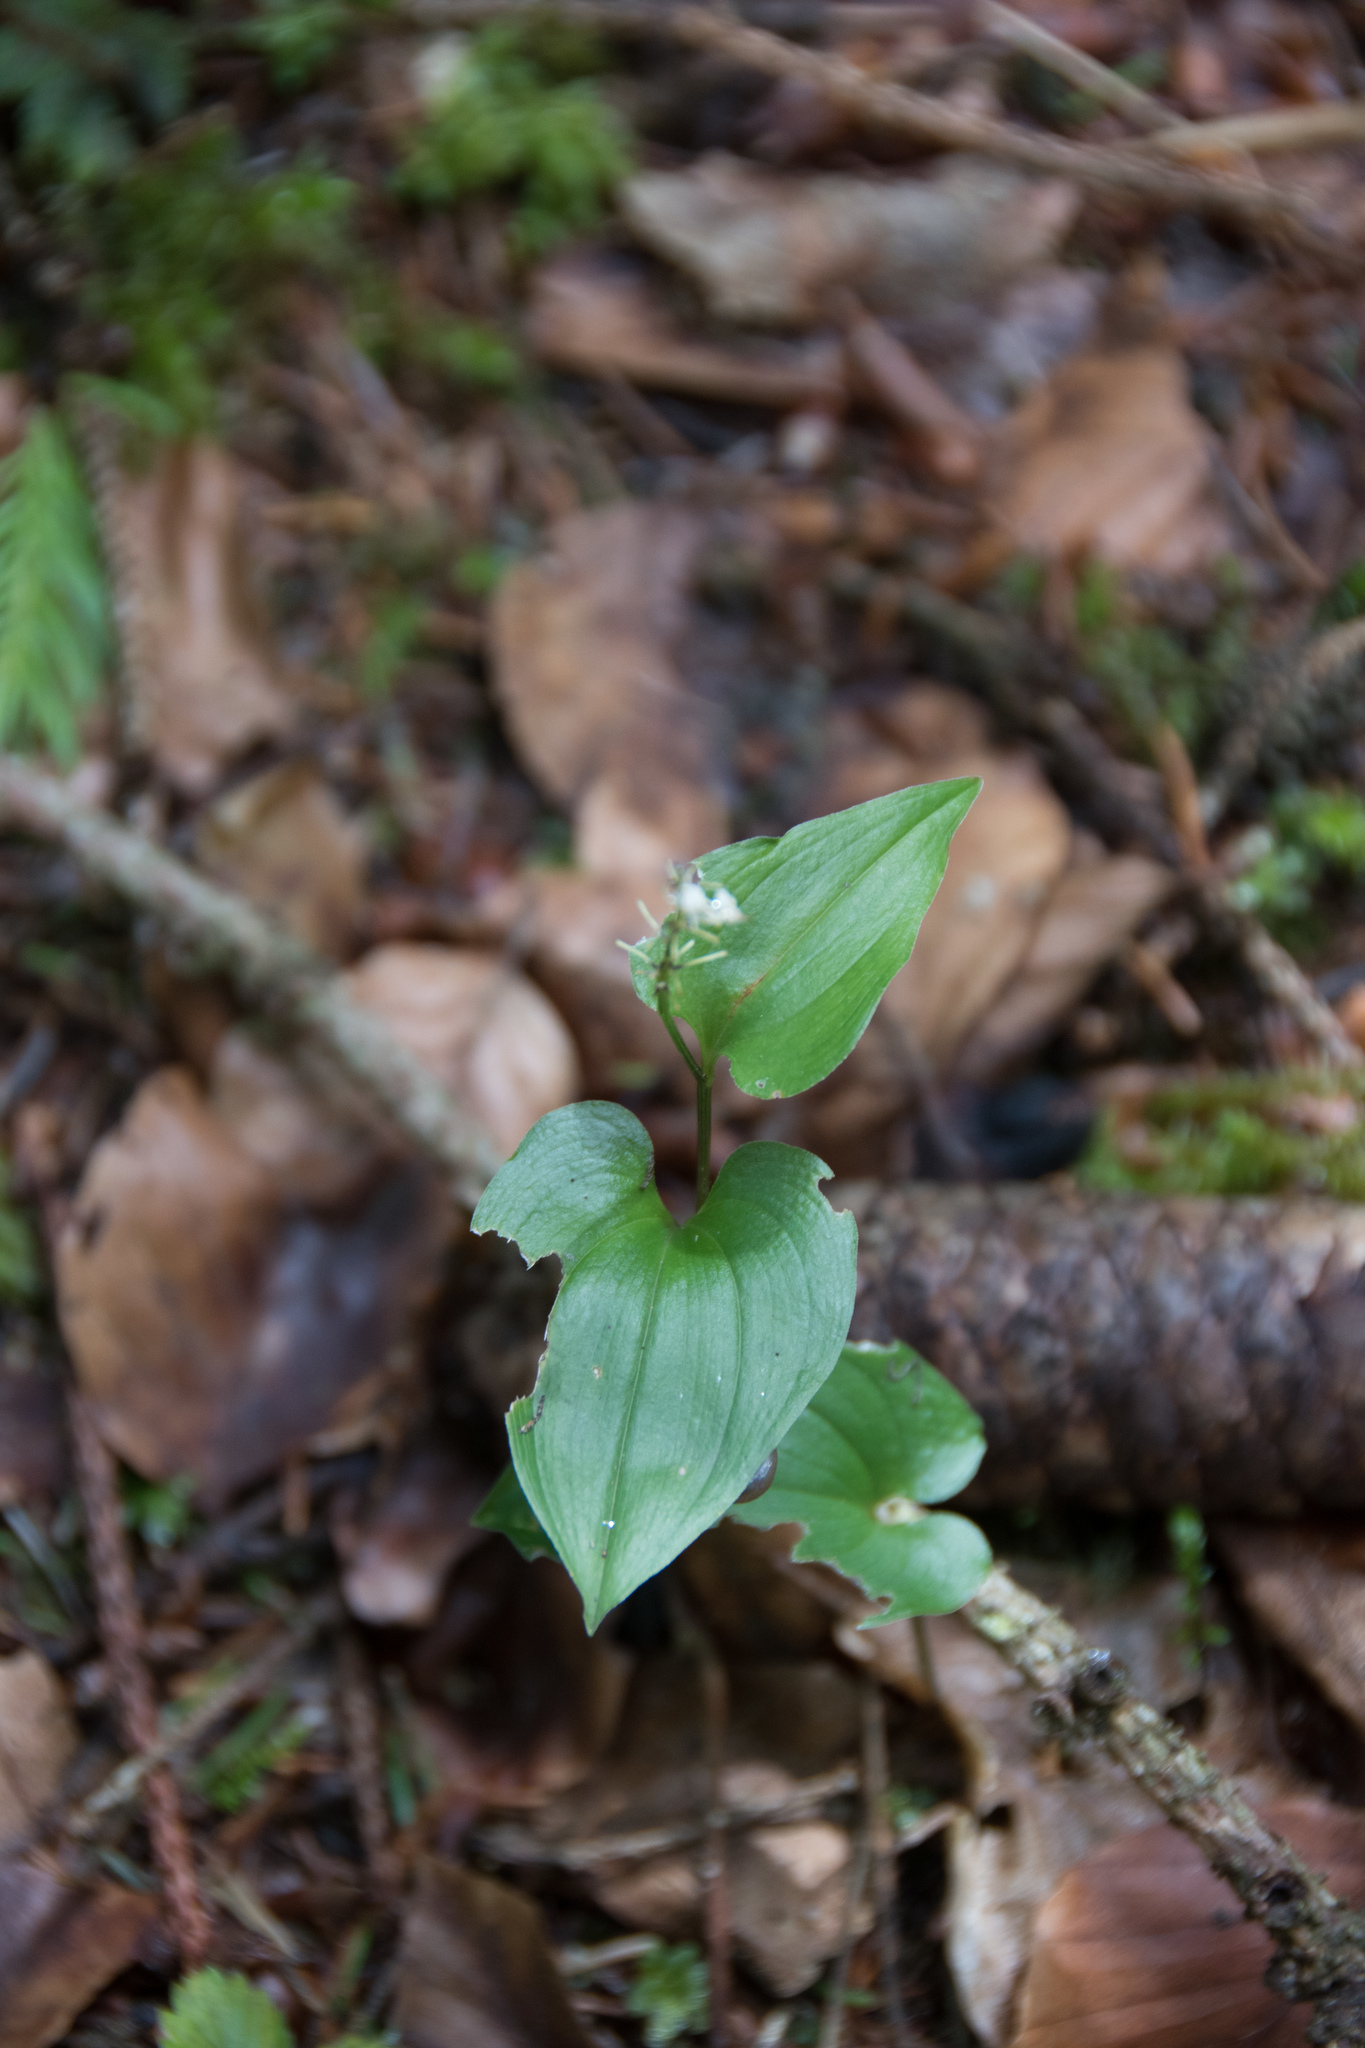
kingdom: Plantae
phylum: Tracheophyta
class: Liliopsida
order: Asparagales
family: Asparagaceae
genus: Maianthemum
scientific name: Maianthemum bifolium
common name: May lily
